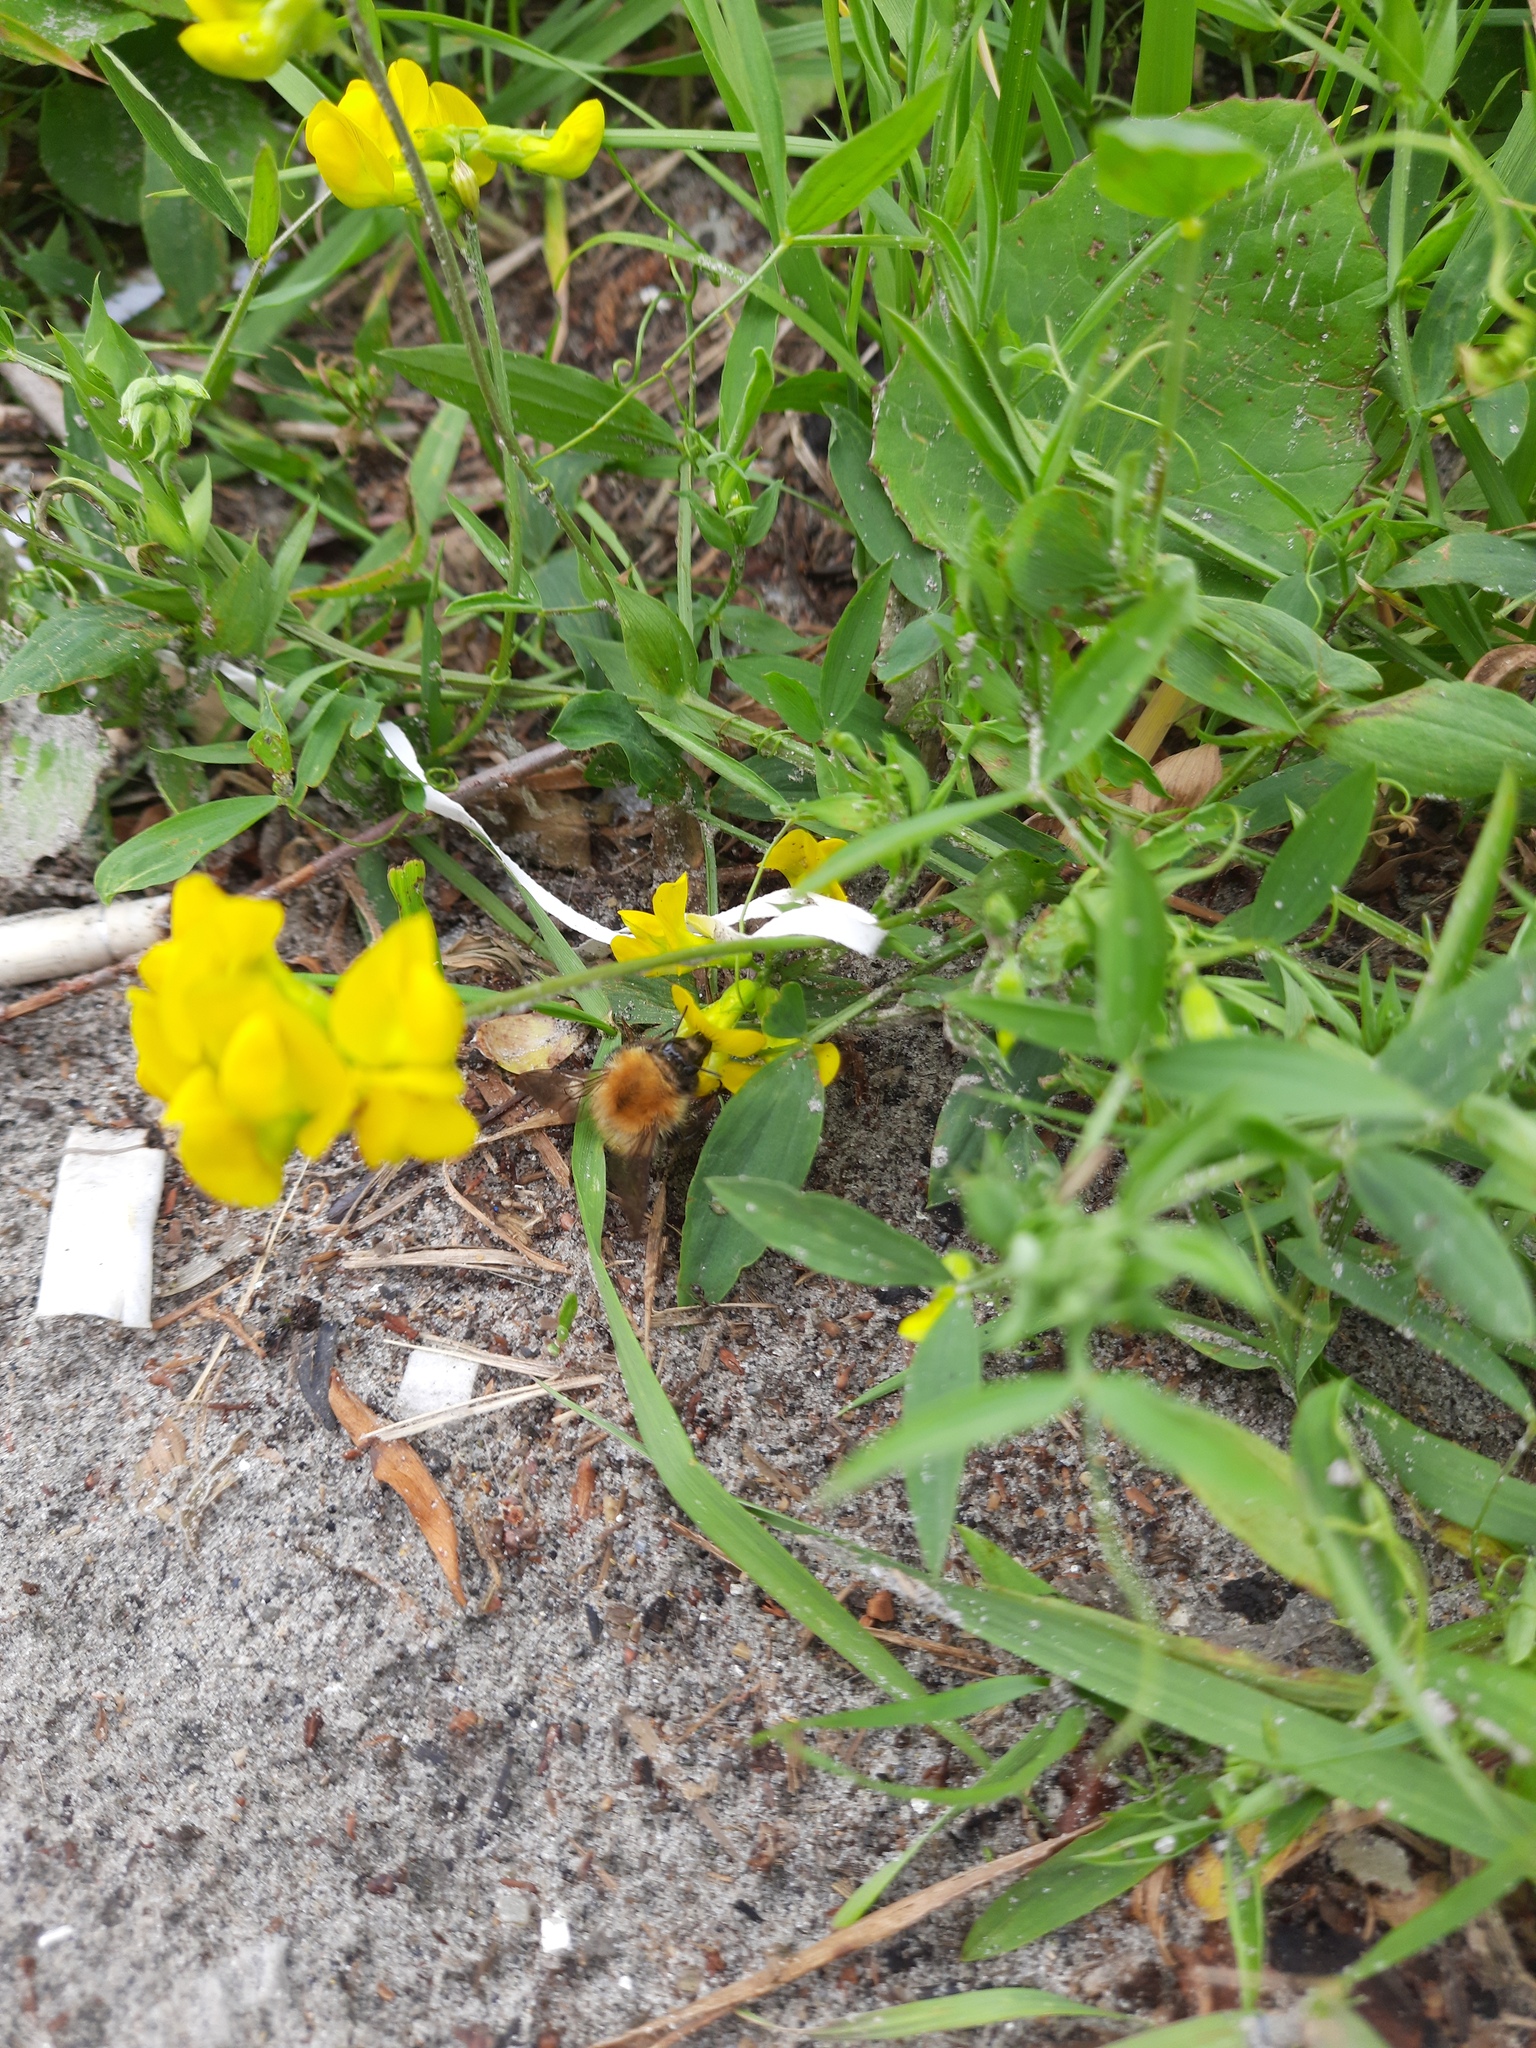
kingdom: Animalia
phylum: Arthropoda
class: Insecta
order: Hymenoptera
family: Apidae
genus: Bombus
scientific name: Bombus pascuorum
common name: Common carder bee
